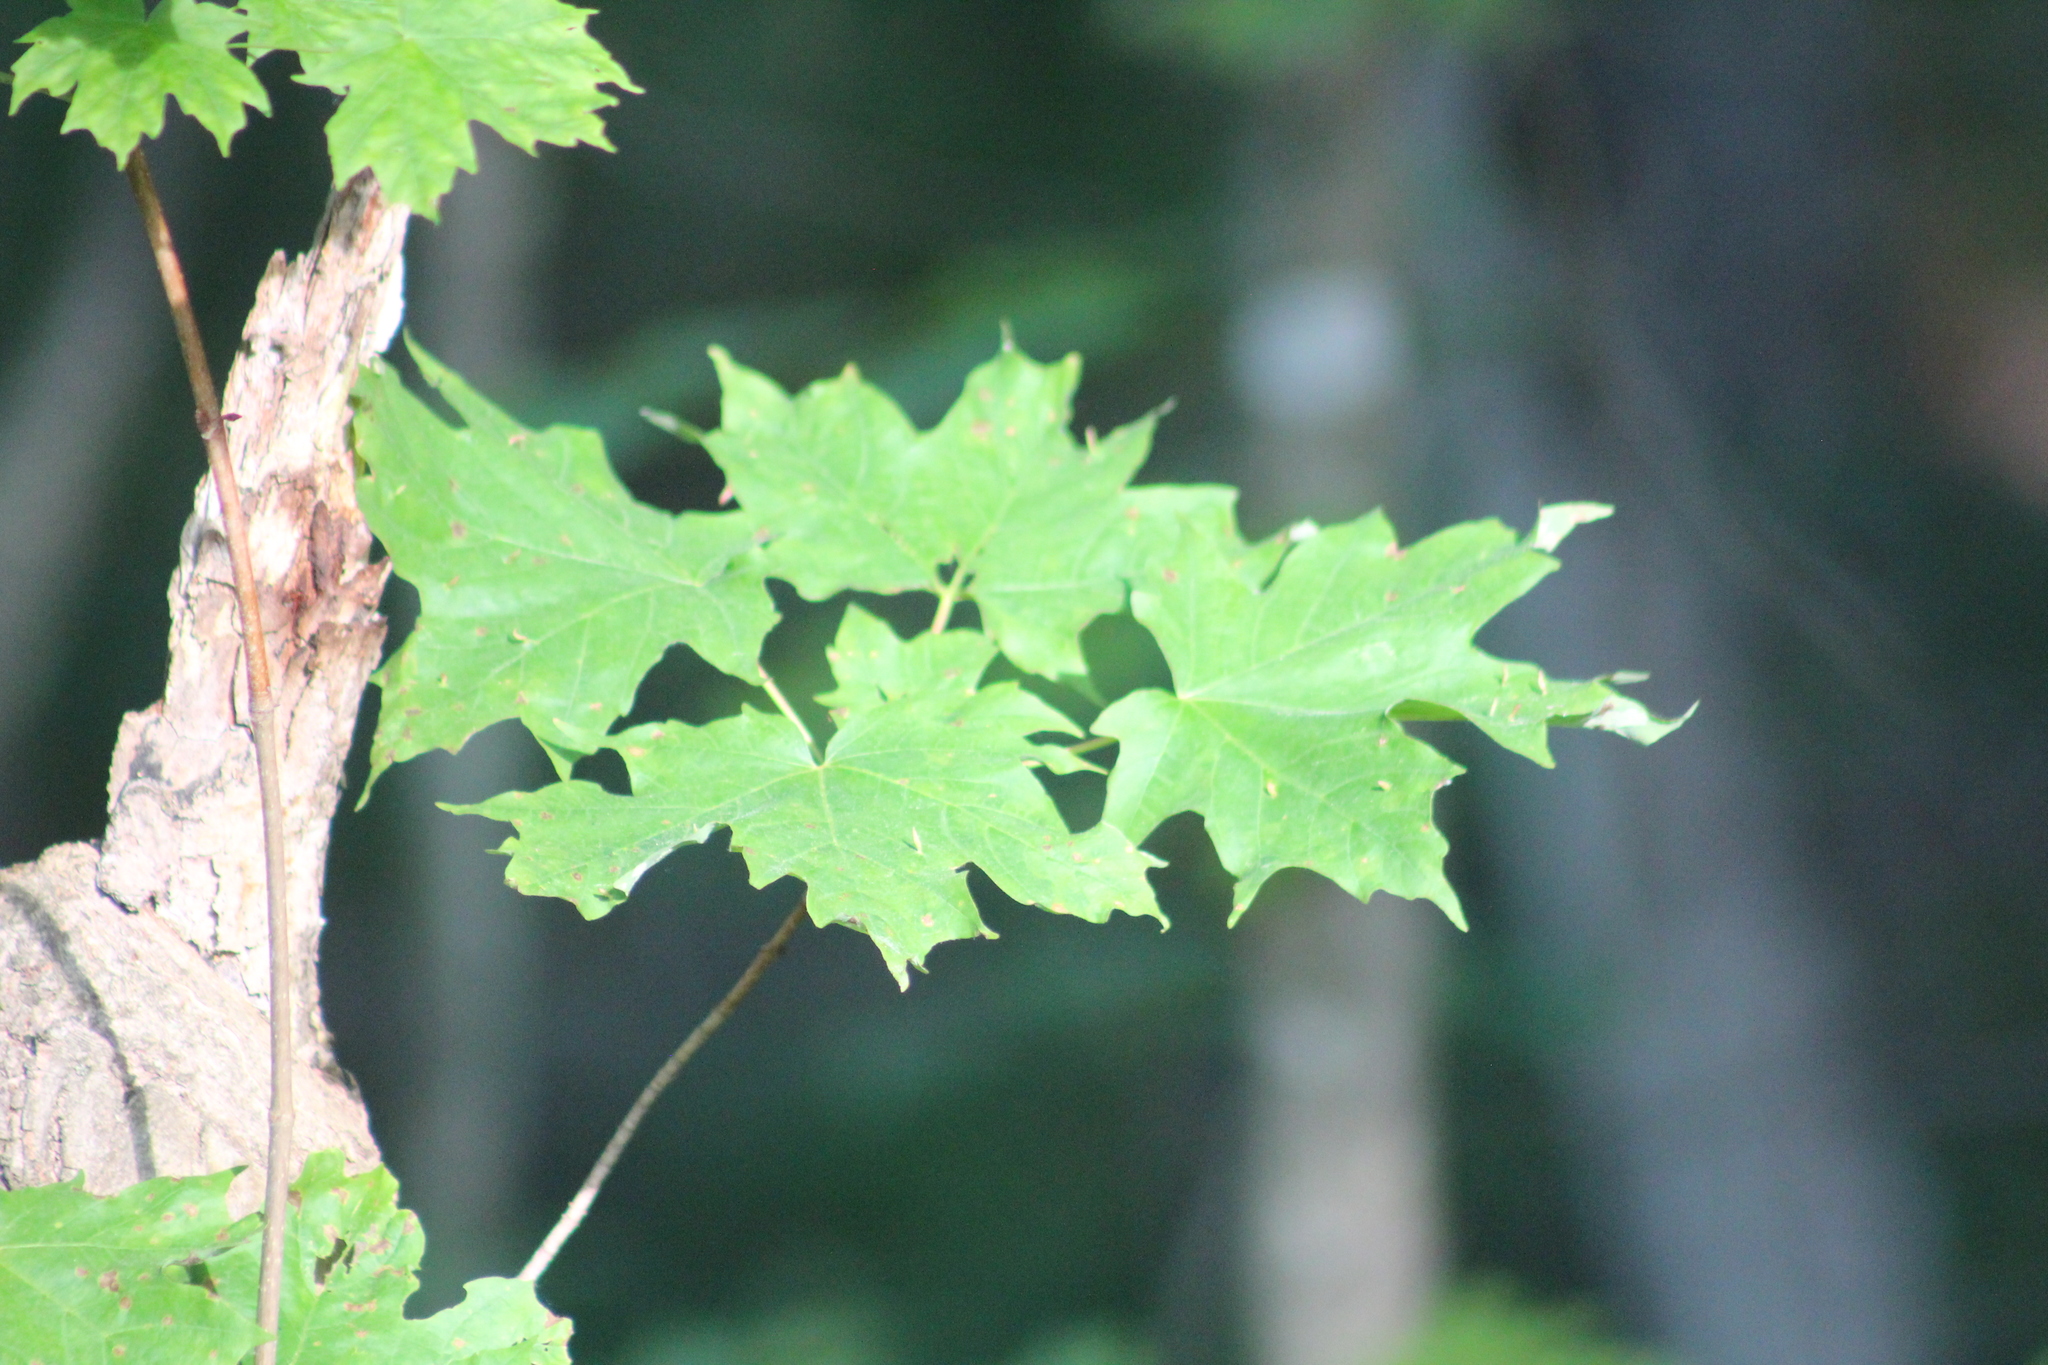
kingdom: Plantae
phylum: Tracheophyta
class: Magnoliopsida
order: Sapindales
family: Sapindaceae
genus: Acer
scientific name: Acer saccharum
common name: Sugar maple
